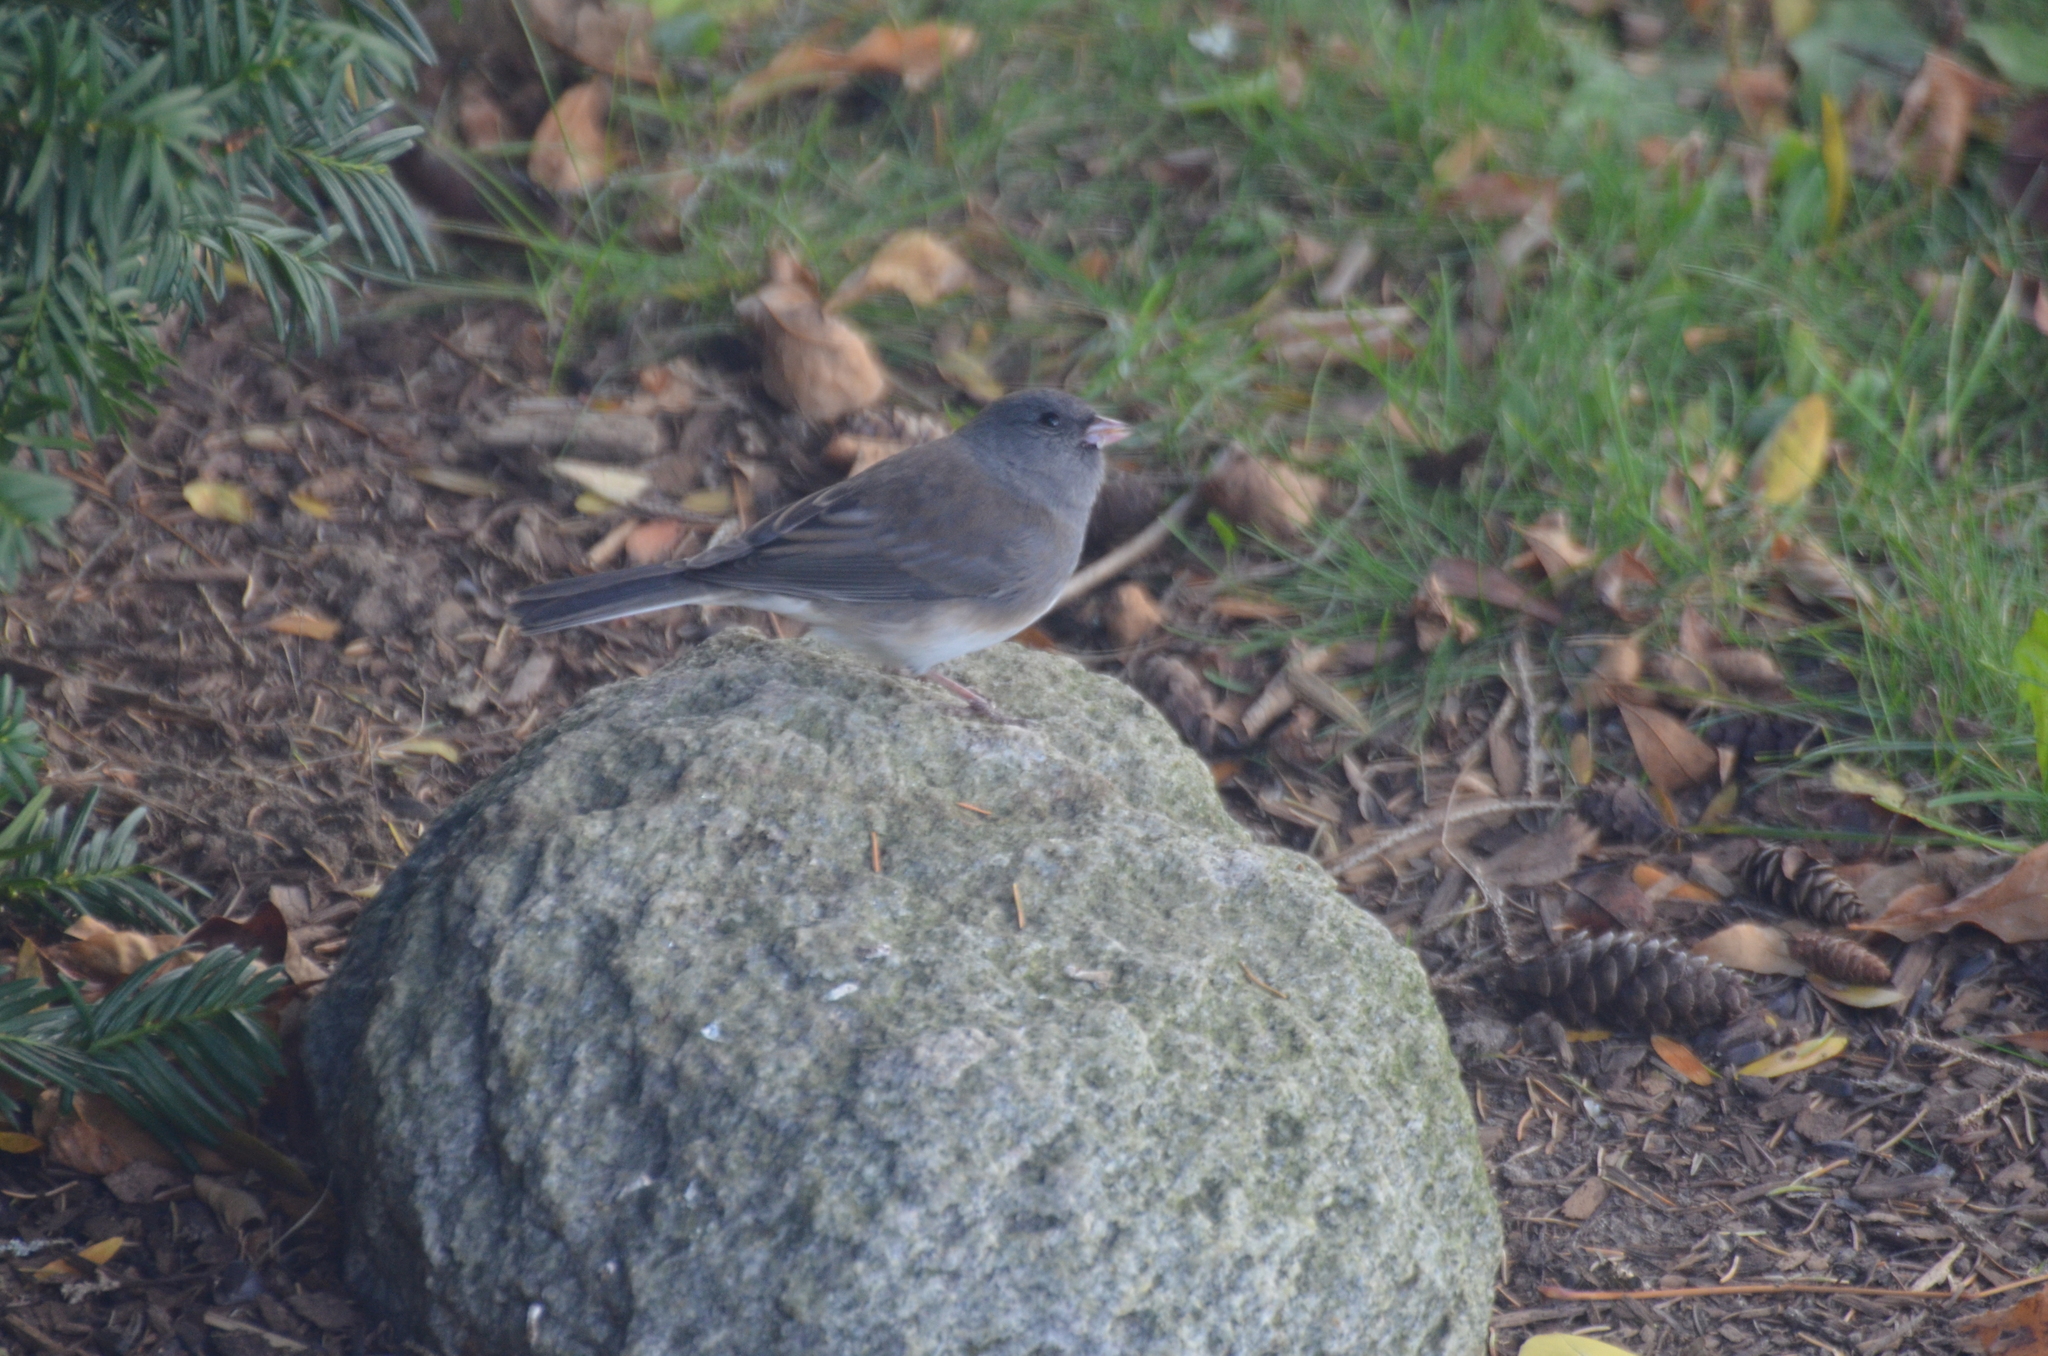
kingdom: Animalia
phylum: Chordata
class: Aves
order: Passeriformes
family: Passerellidae
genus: Junco
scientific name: Junco hyemalis
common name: Dark-eyed junco
